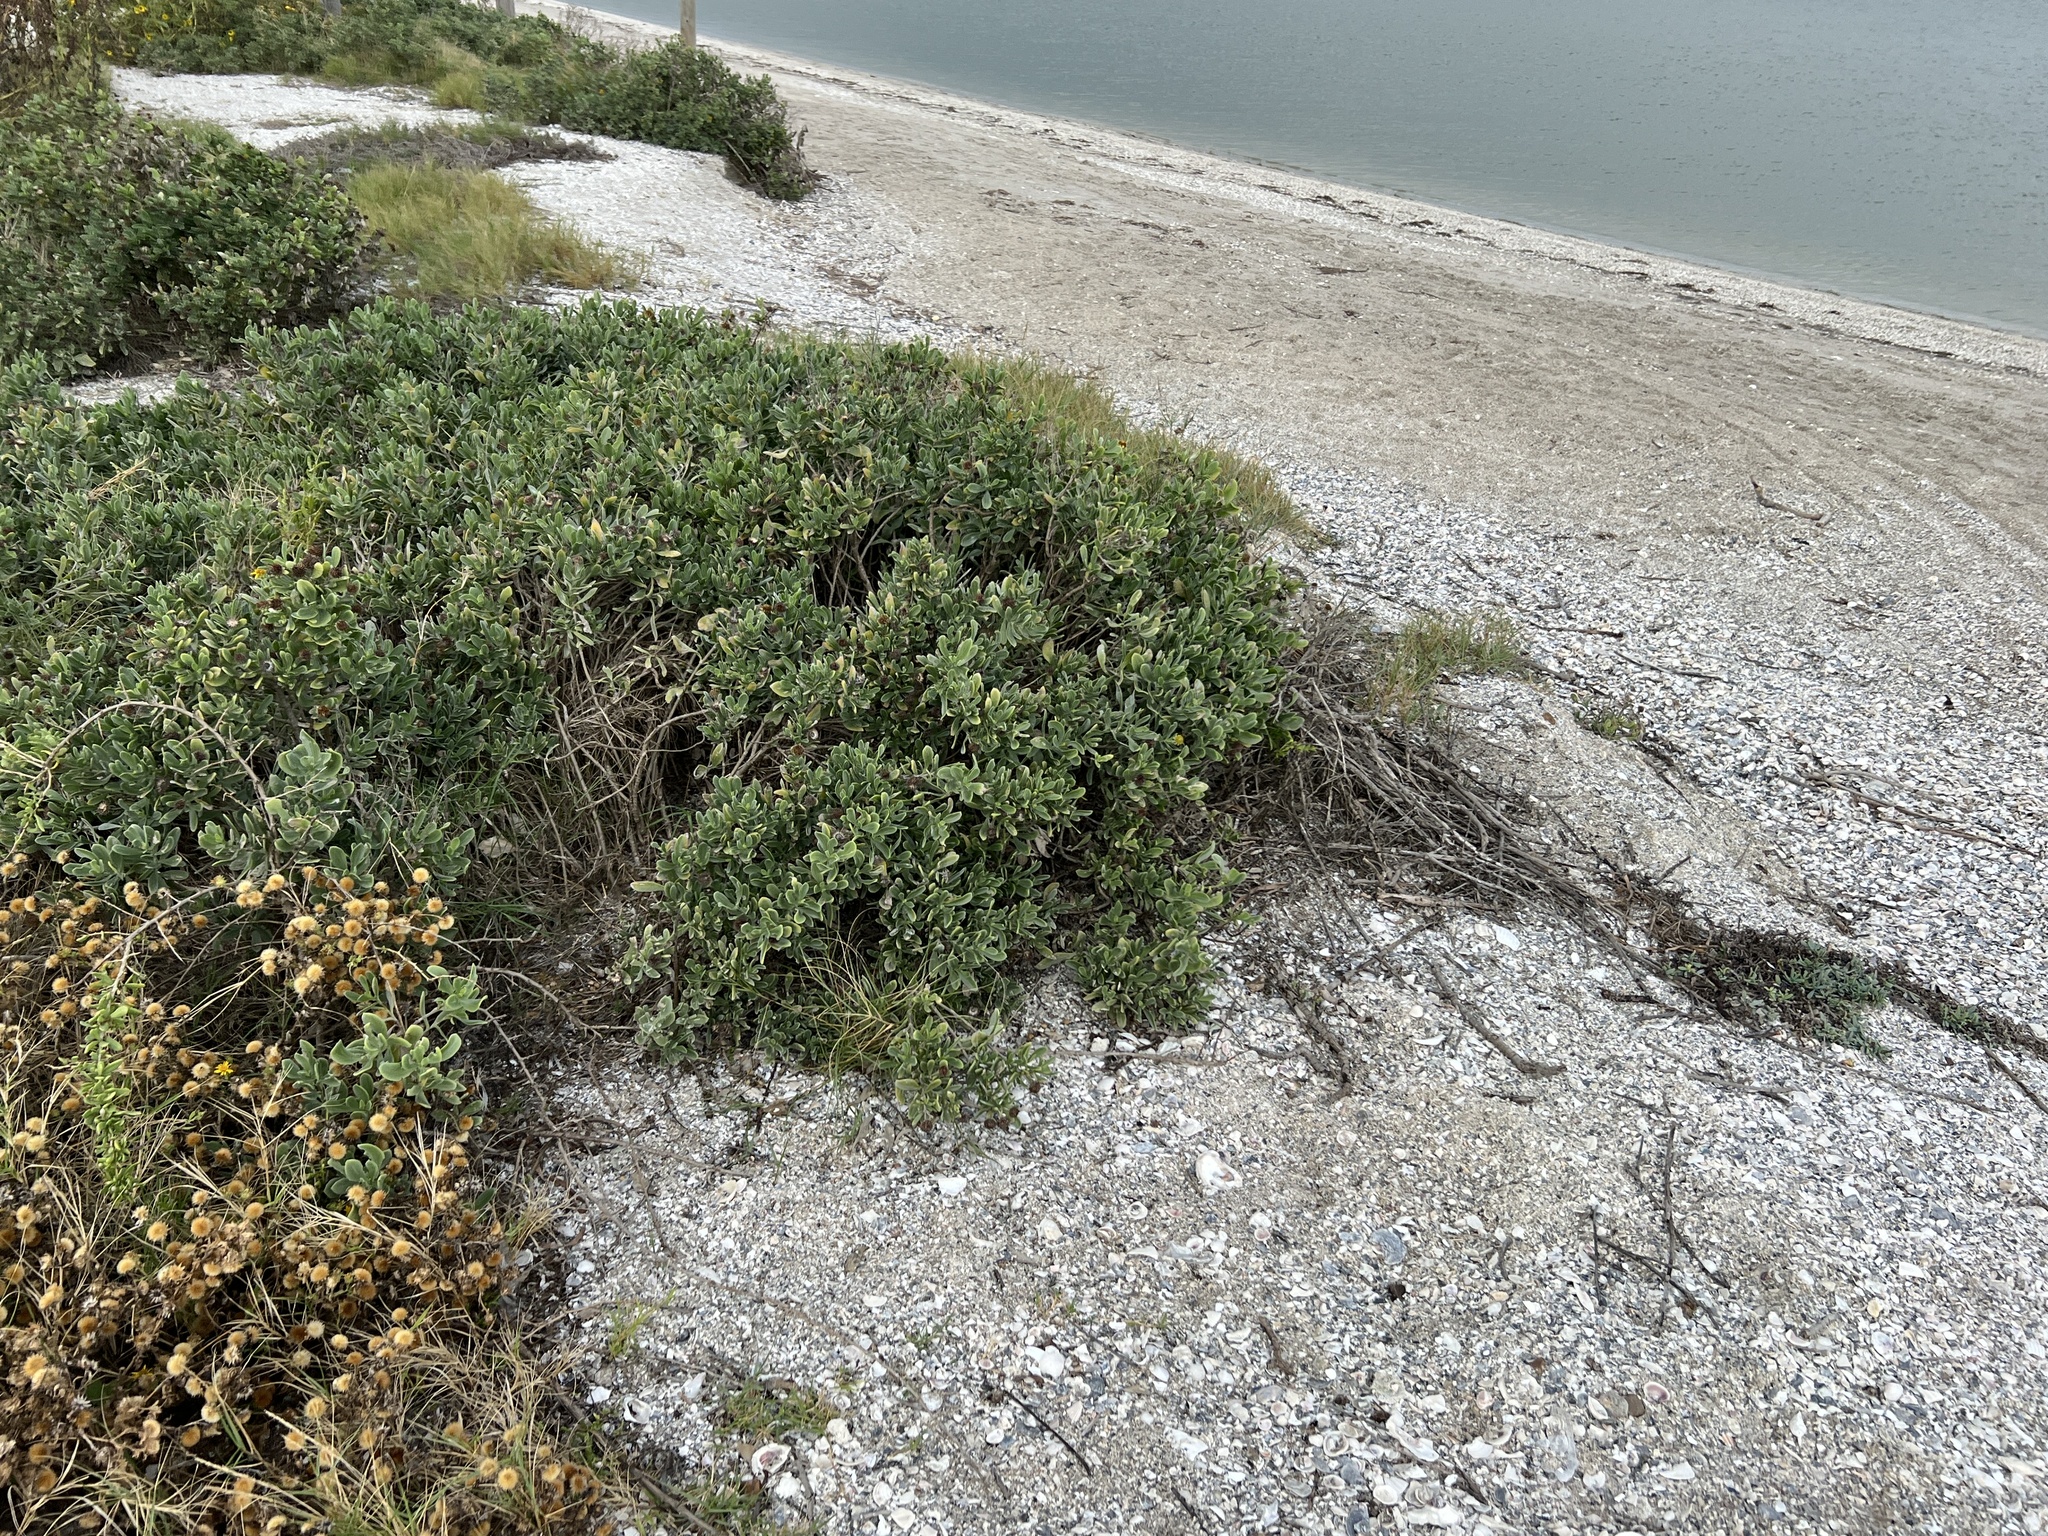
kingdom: Plantae
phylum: Tracheophyta
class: Magnoliopsida
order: Asterales
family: Asteraceae
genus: Borrichia
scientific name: Borrichia frutescens
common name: Sea oxeye
